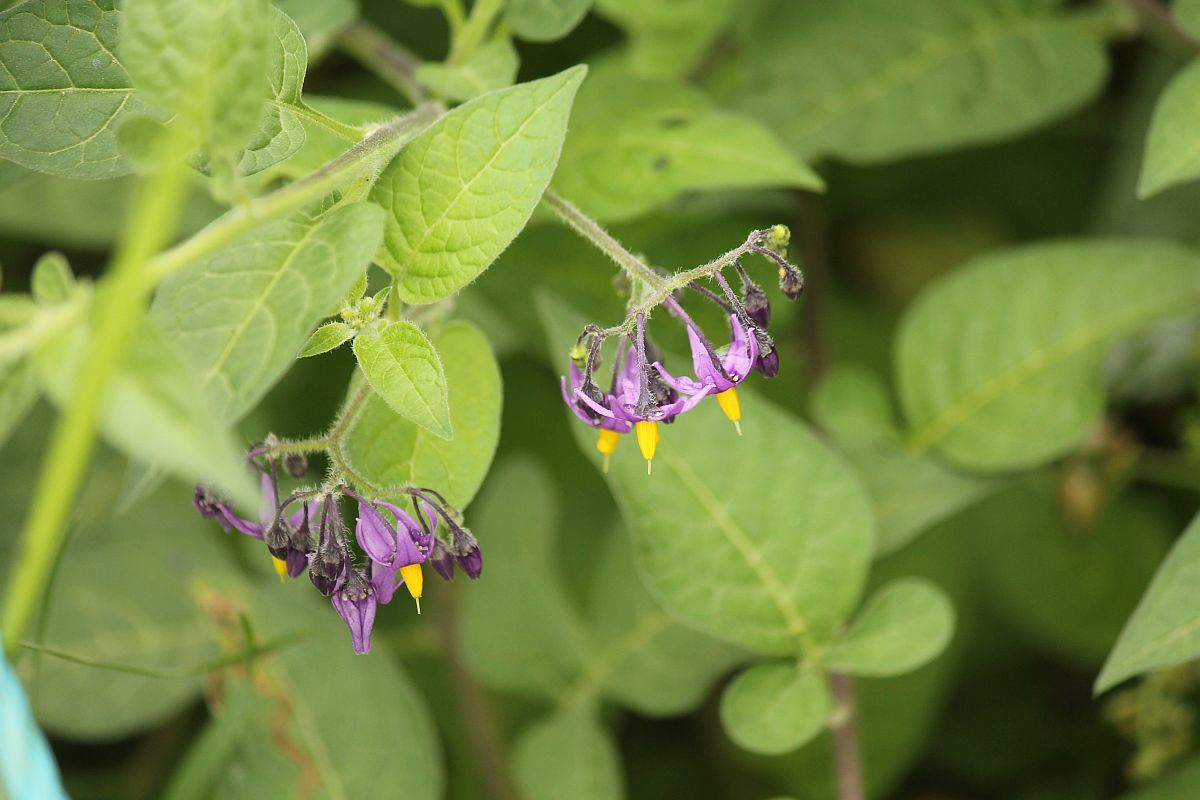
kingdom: Plantae
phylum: Tracheophyta
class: Magnoliopsida
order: Solanales
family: Solanaceae
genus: Solanum
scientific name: Solanum dulcamara
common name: Climbing nightshade
